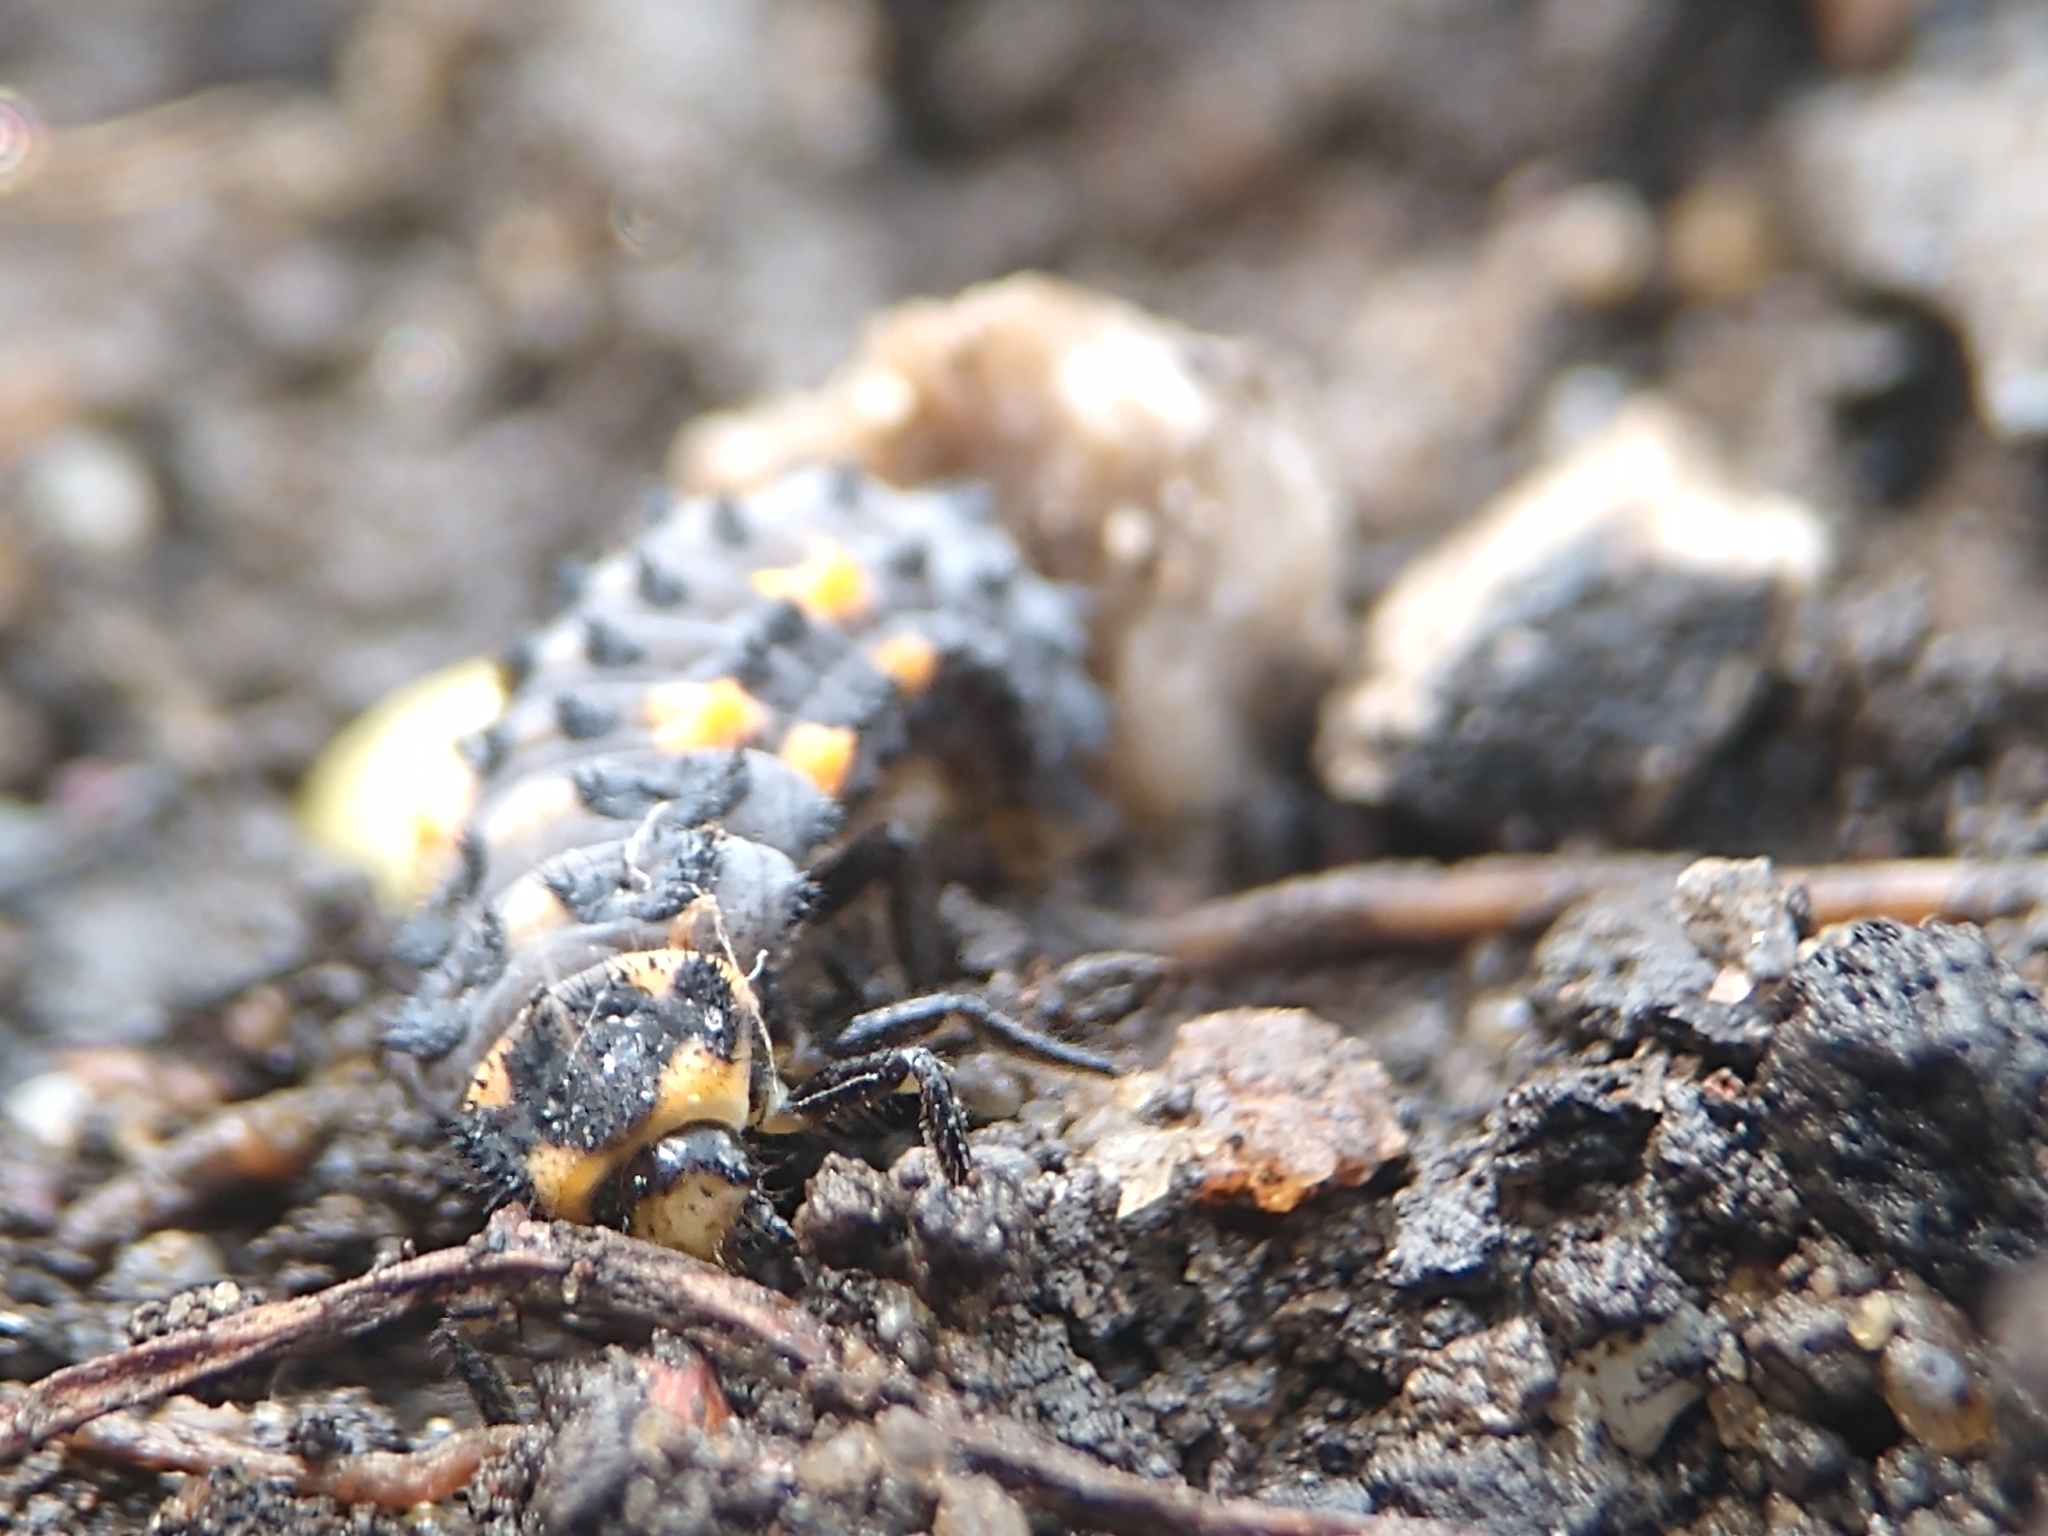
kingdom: Animalia
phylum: Arthropoda
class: Insecta
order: Coleoptera
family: Coccinellidae
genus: Coccinella
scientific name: Coccinella septempunctata
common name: Sevenspotted lady beetle
